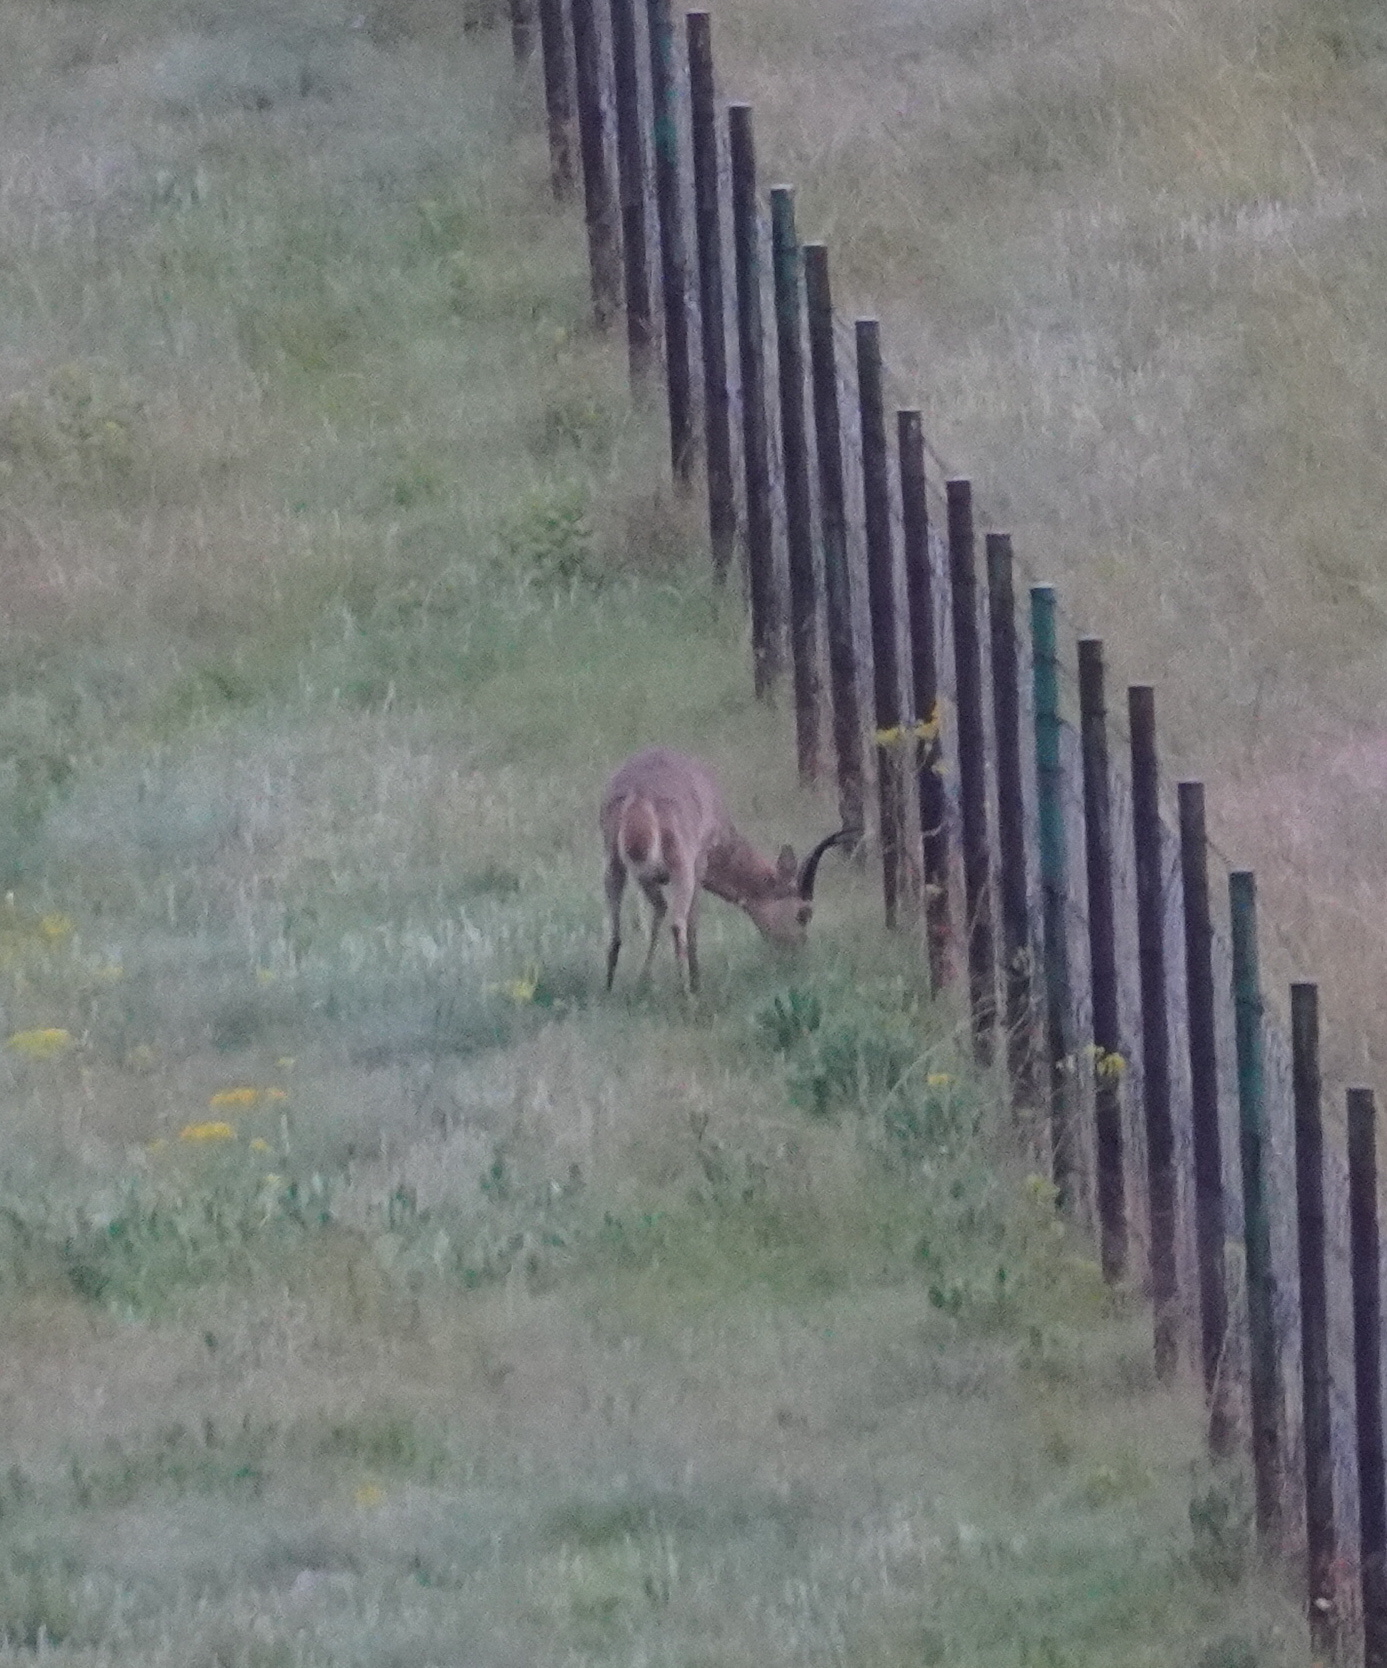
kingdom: Animalia
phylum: Chordata
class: Mammalia
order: Artiodactyla
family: Bovidae
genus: Redunca
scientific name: Redunca arundinum
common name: Southern reedbuck
